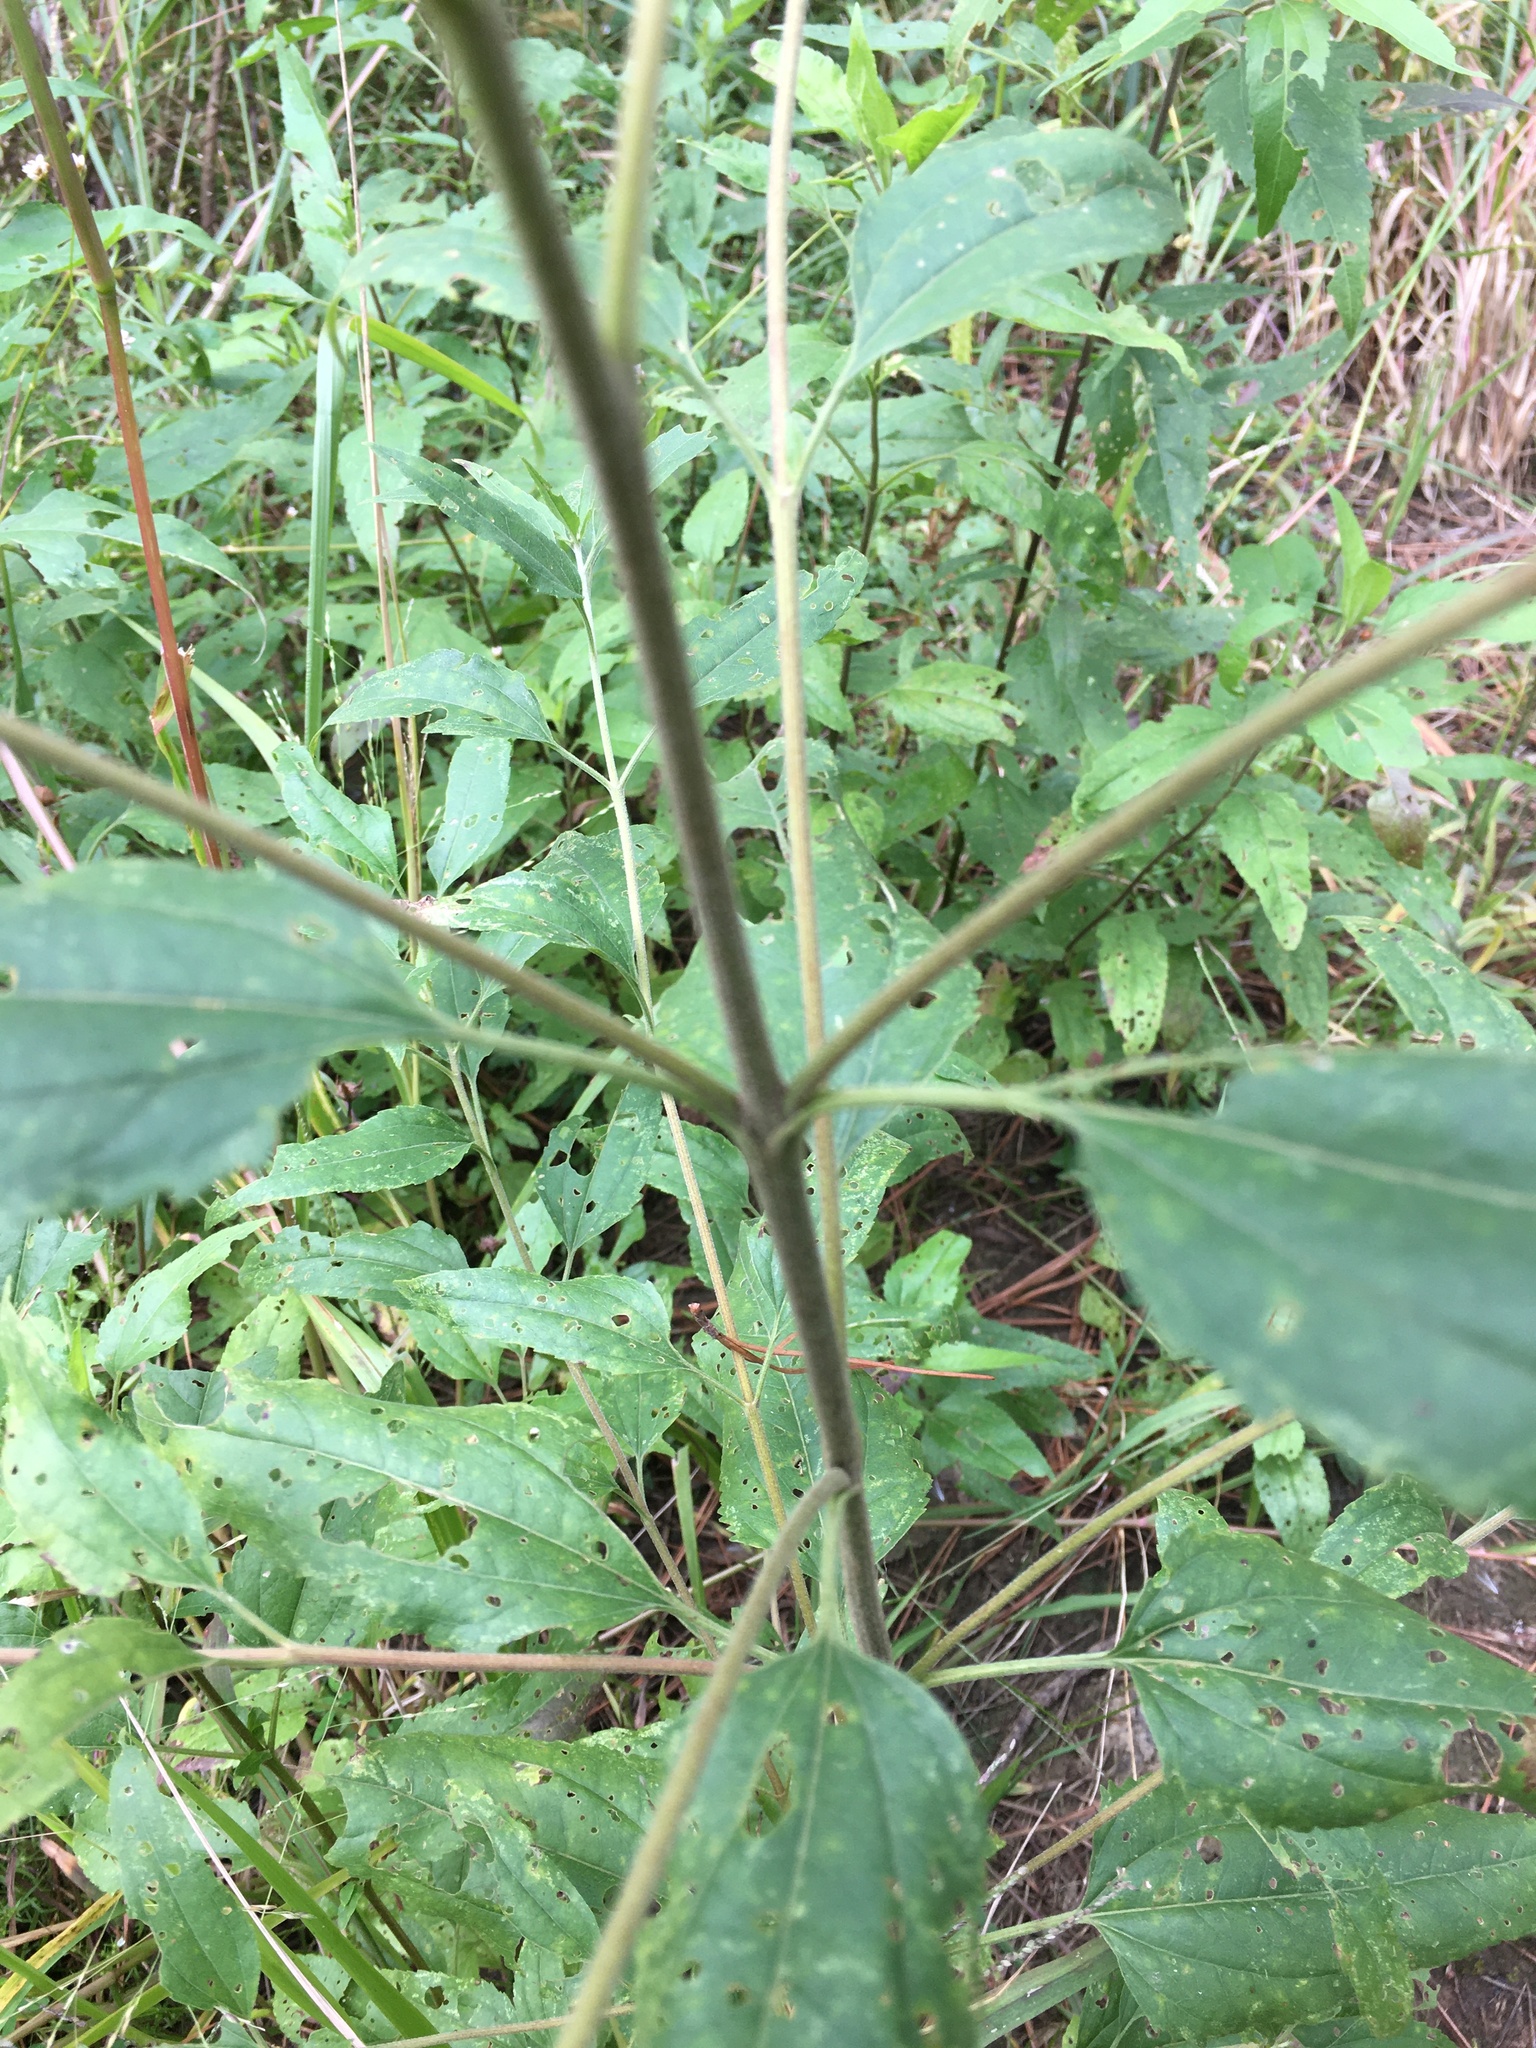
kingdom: Plantae
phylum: Tracheophyta
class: Magnoliopsida
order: Asterales
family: Asteraceae
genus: Eupatorium
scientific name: Eupatorium serotinum
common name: Late boneset
